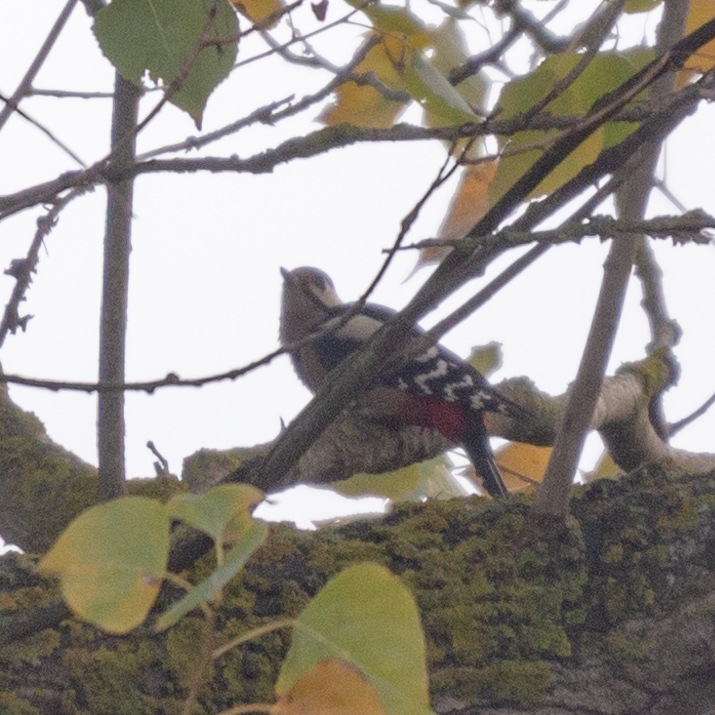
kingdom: Animalia
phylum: Chordata
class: Aves
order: Piciformes
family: Picidae
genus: Dendrocopos
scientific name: Dendrocopos major
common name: Great spotted woodpecker
